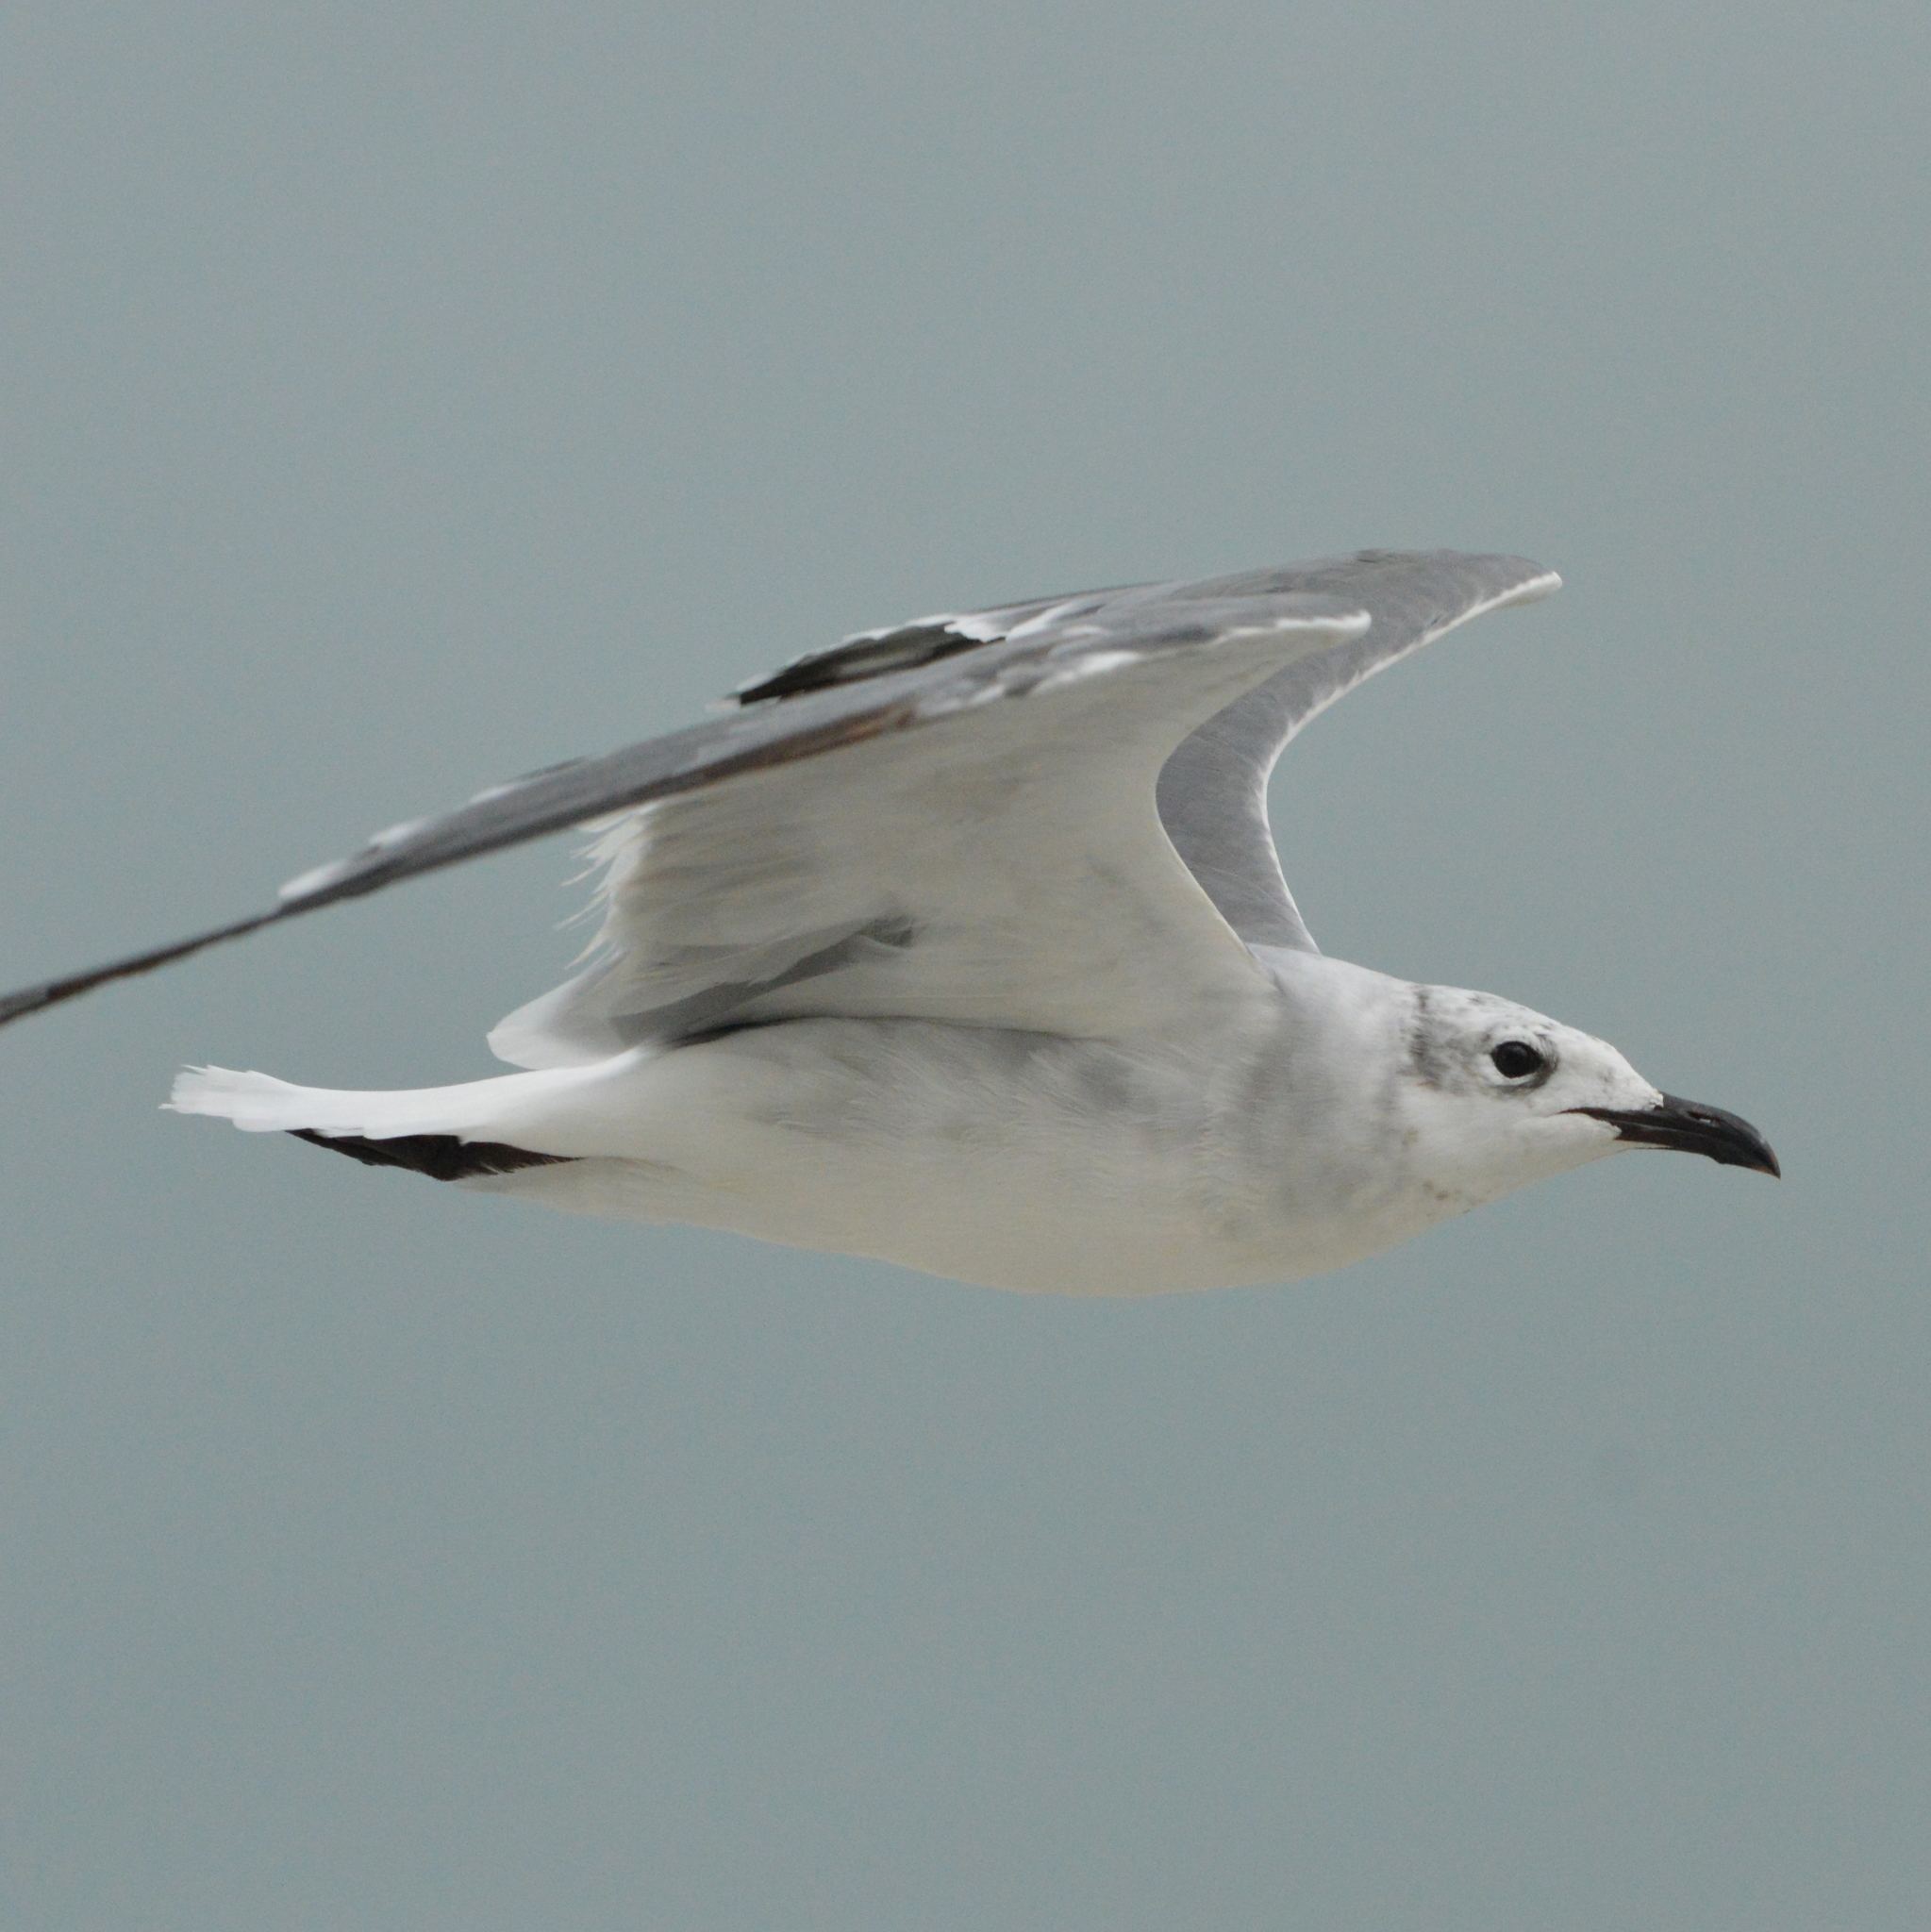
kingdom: Animalia
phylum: Chordata
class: Aves
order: Charadriiformes
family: Laridae
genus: Leucophaeus
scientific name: Leucophaeus atricilla
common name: Laughing gull
